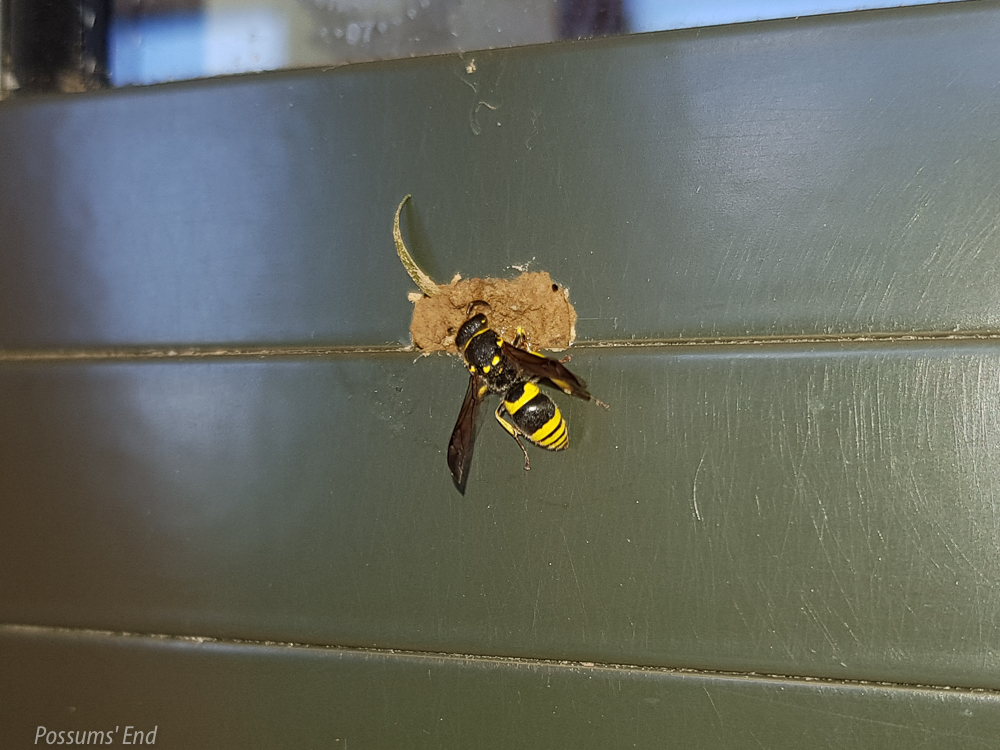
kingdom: Animalia
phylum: Arthropoda
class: Insecta
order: Hymenoptera
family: Vespidae
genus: Ancistrocerus
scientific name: Ancistrocerus gazella
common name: European tube wasp
